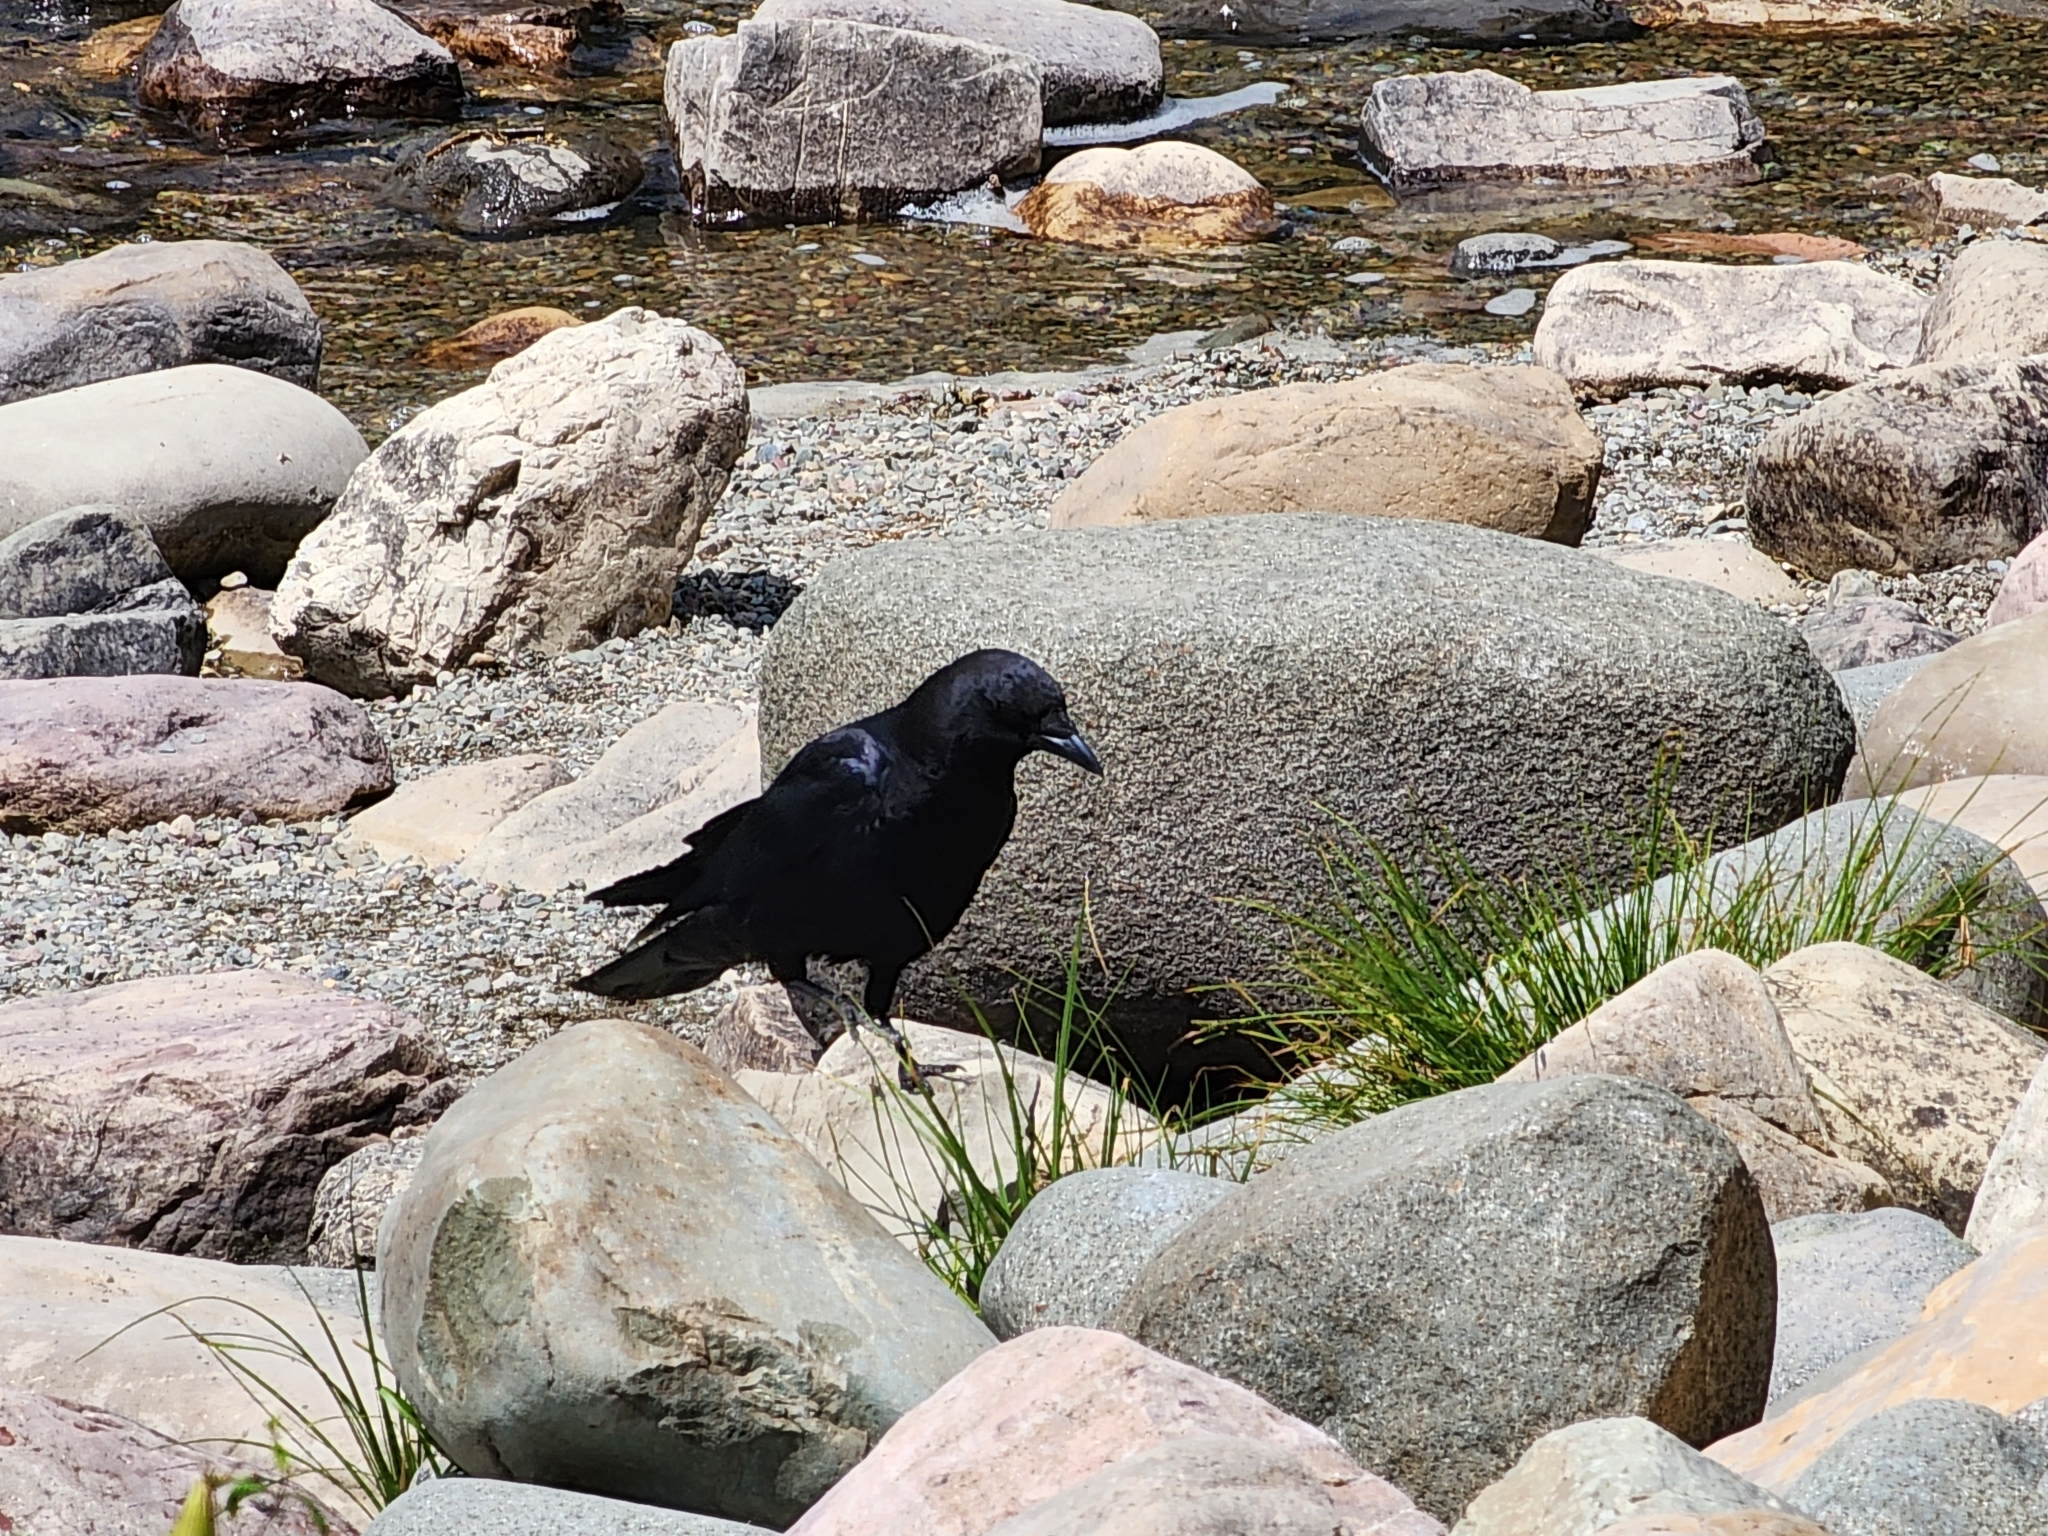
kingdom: Animalia
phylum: Chordata
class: Aves
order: Passeriformes
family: Corvidae
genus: Corvus
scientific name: Corvus brachyrhynchos
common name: American crow
